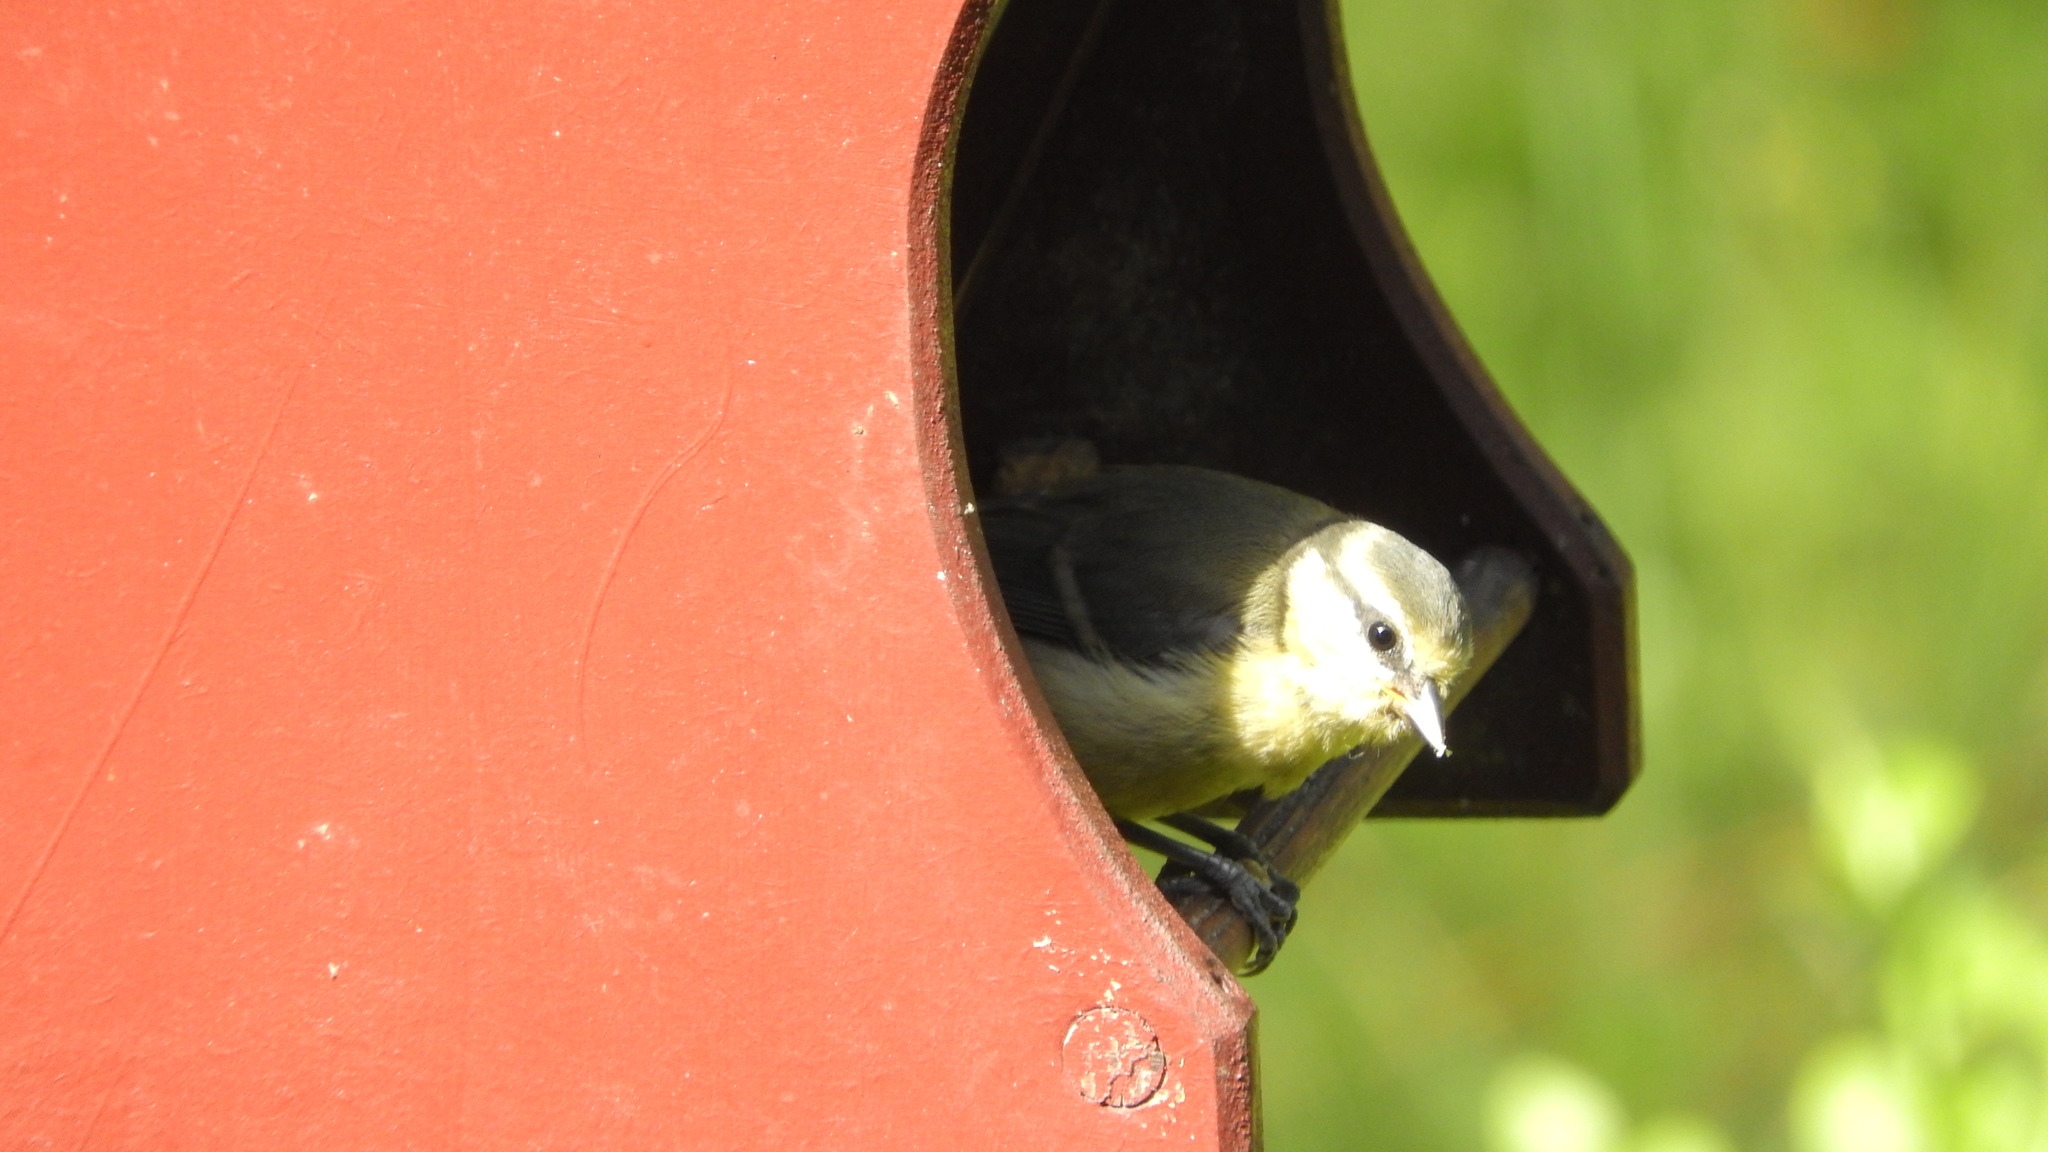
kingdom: Animalia
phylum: Chordata
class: Aves
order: Passeriformes
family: Paridae
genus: Cyanistes
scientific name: Cyanistes caeruleus
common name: Eurasian blue tit
